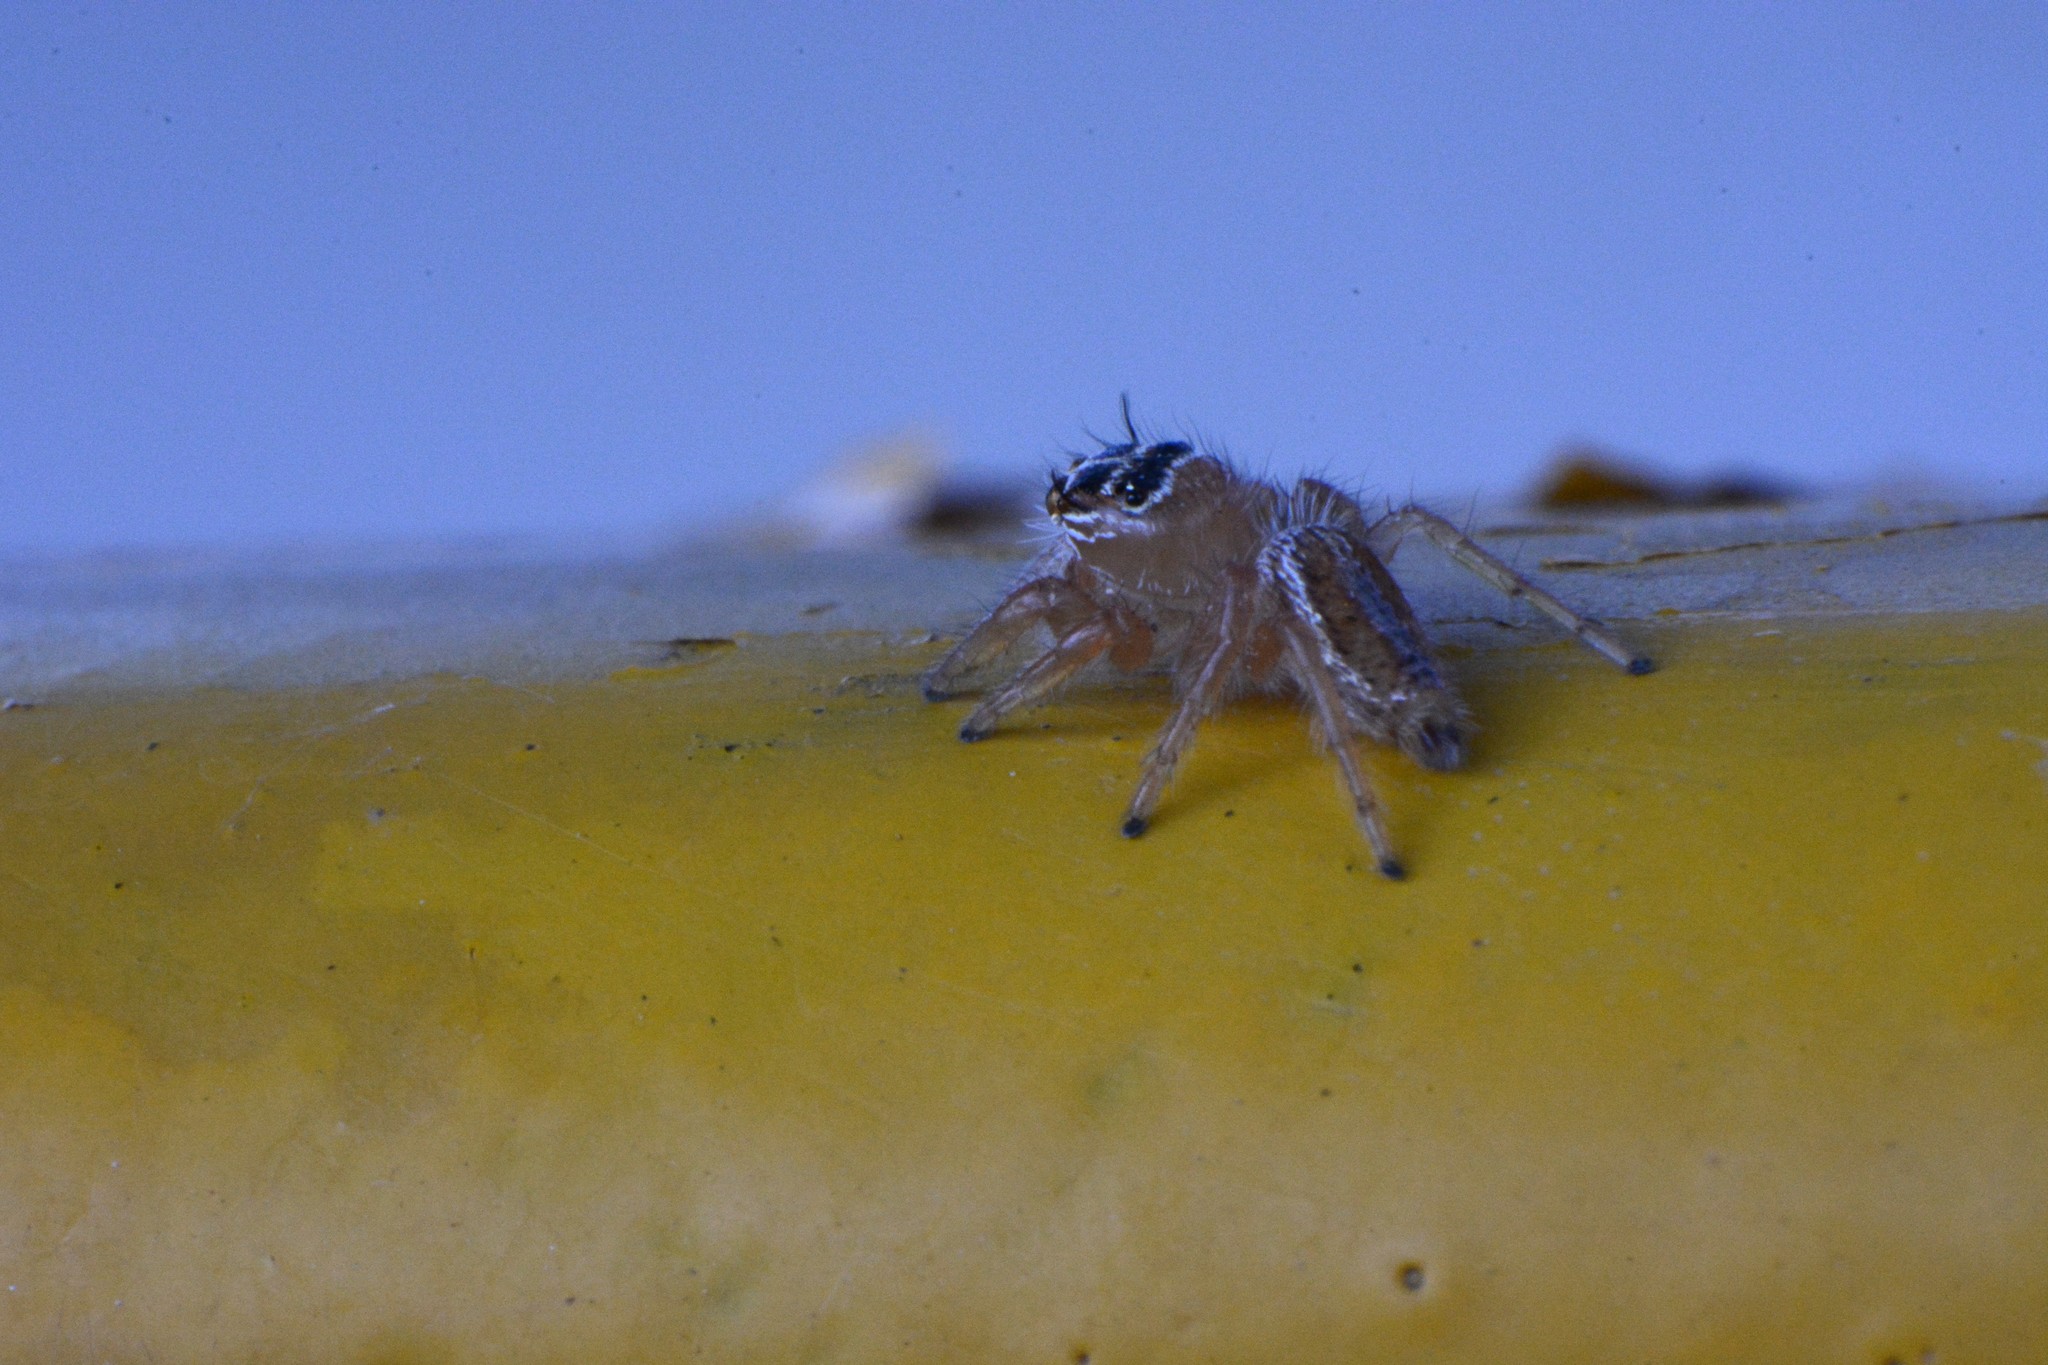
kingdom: Animalia
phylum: Arthropoda
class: Arachnida
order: Araneae
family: Salticidae
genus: Thyene
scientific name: Thyene inflata
